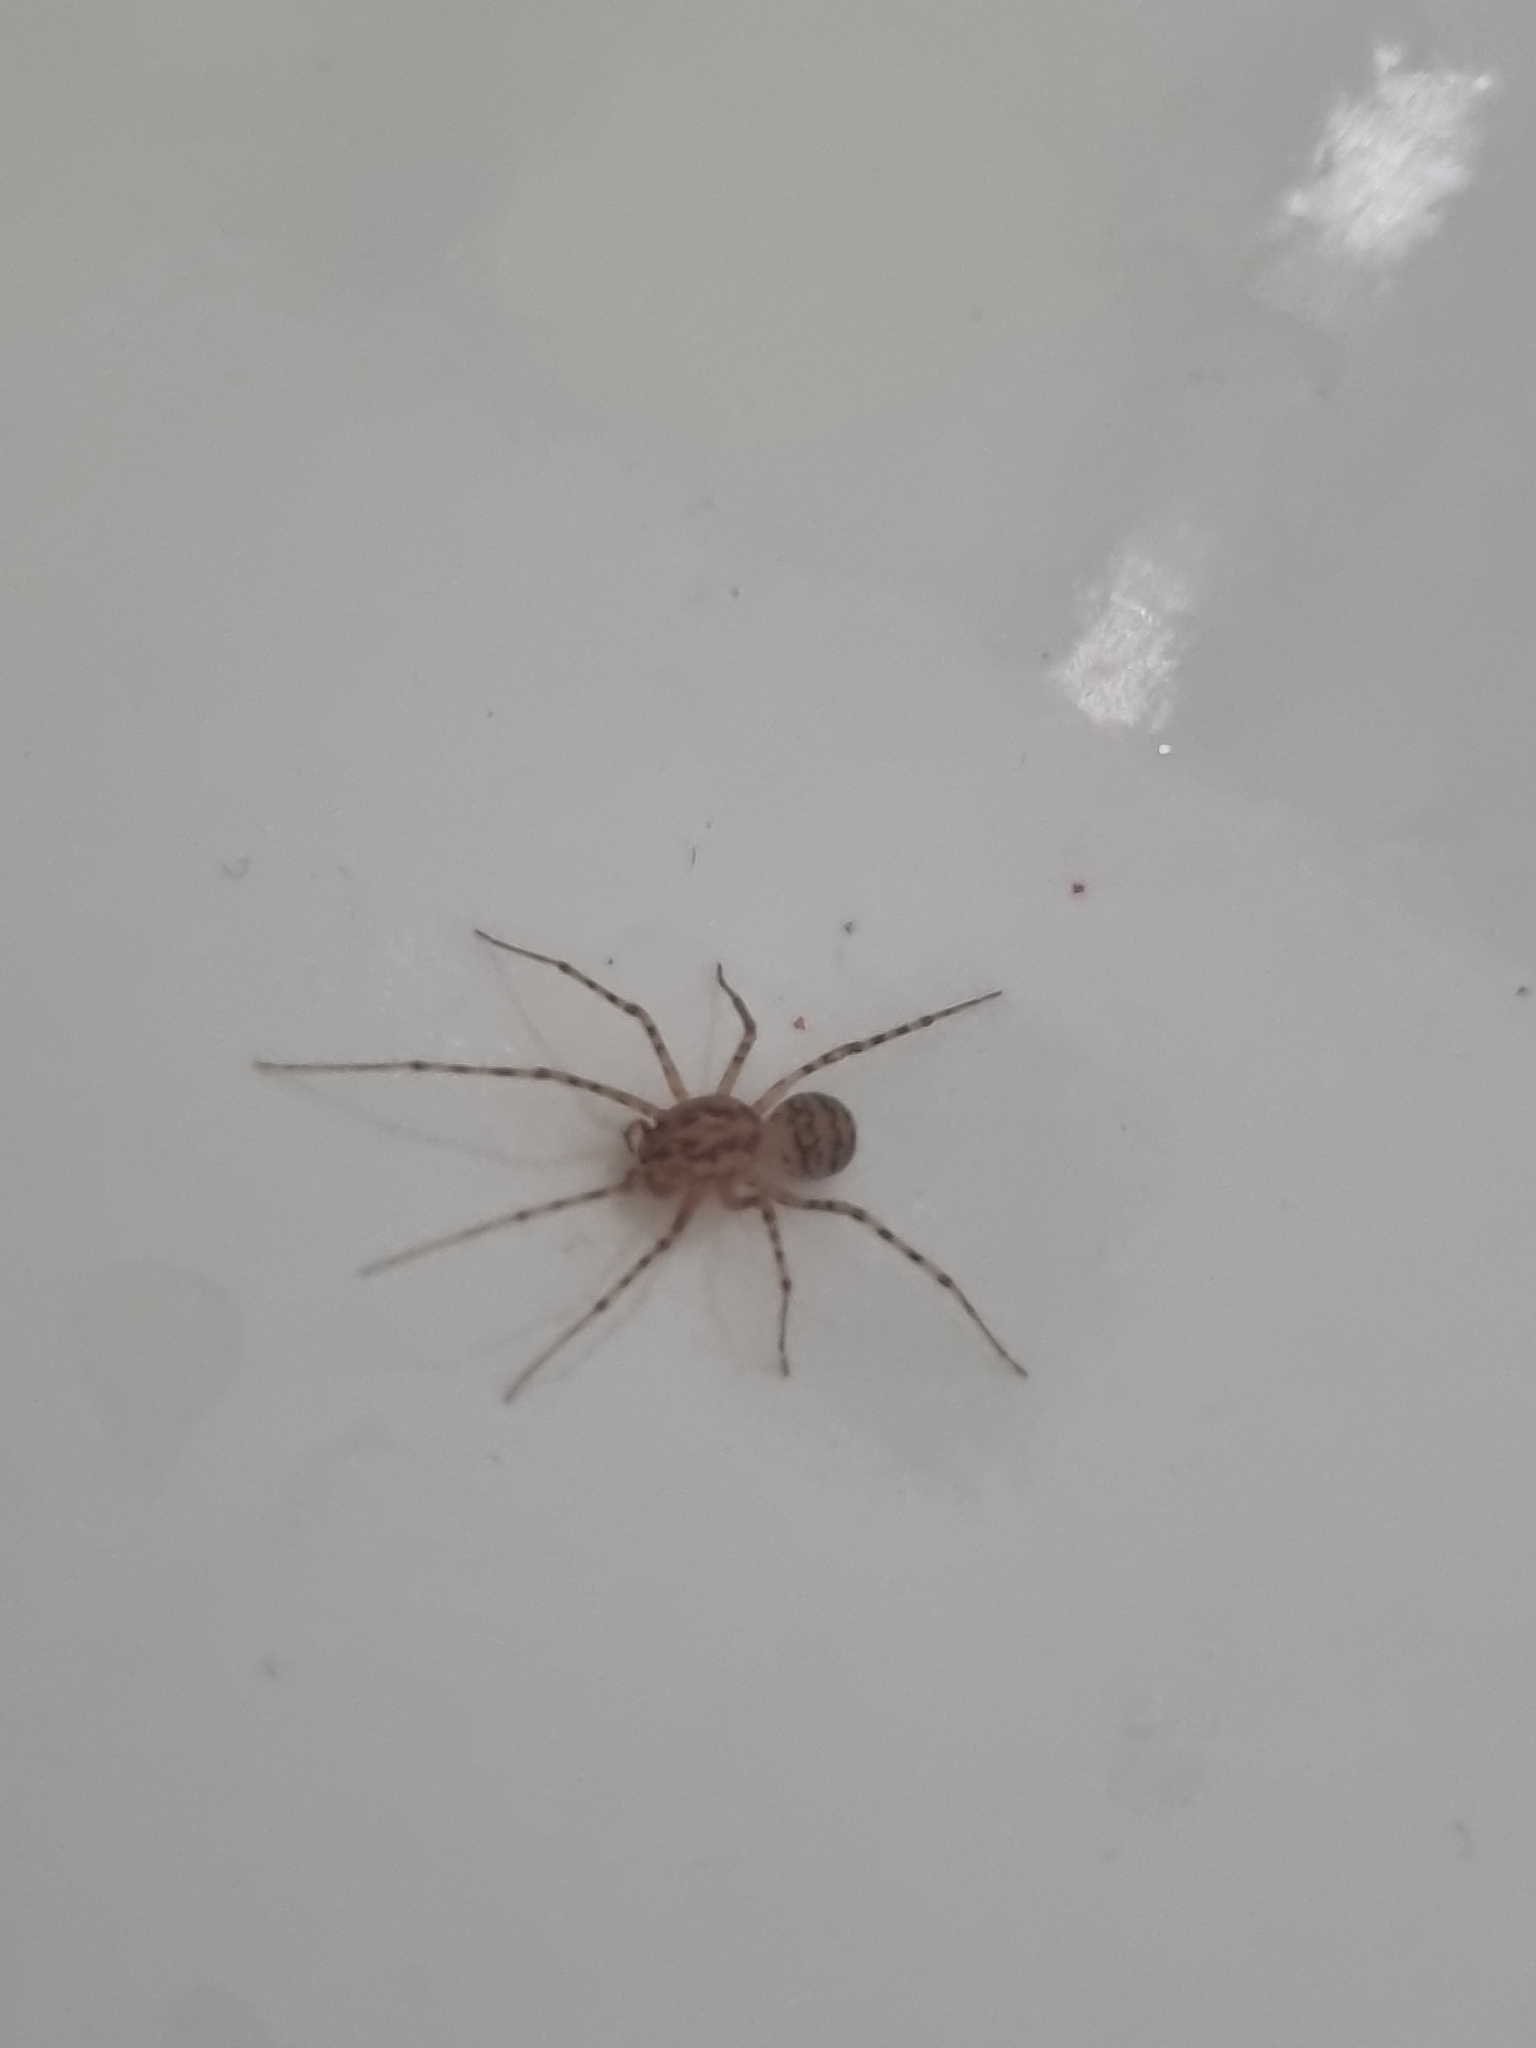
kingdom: Animalia
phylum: Arthropoda
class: Arachnida
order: Araneae
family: Scytodidae
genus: Scytodes
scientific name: Scytodes thoracica
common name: Spitting spider
